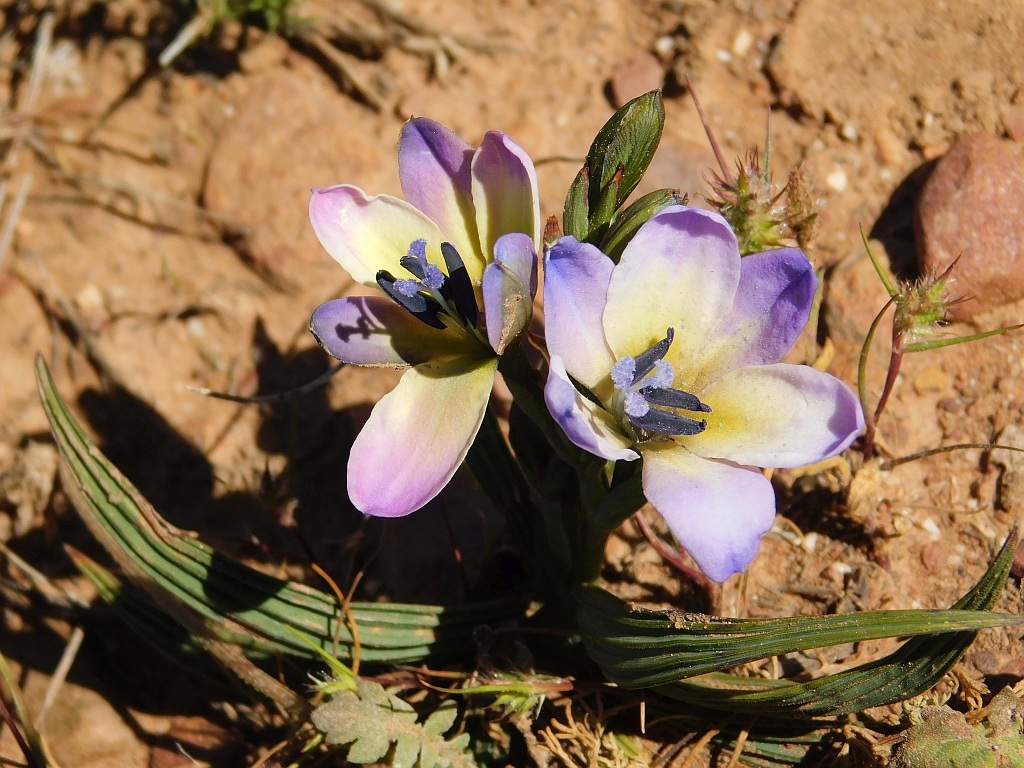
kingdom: Plantae
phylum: Tracheophyta
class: Liliopsida
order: Asparagales
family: Iridaceae
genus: Babiana
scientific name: Babiana nervosa
